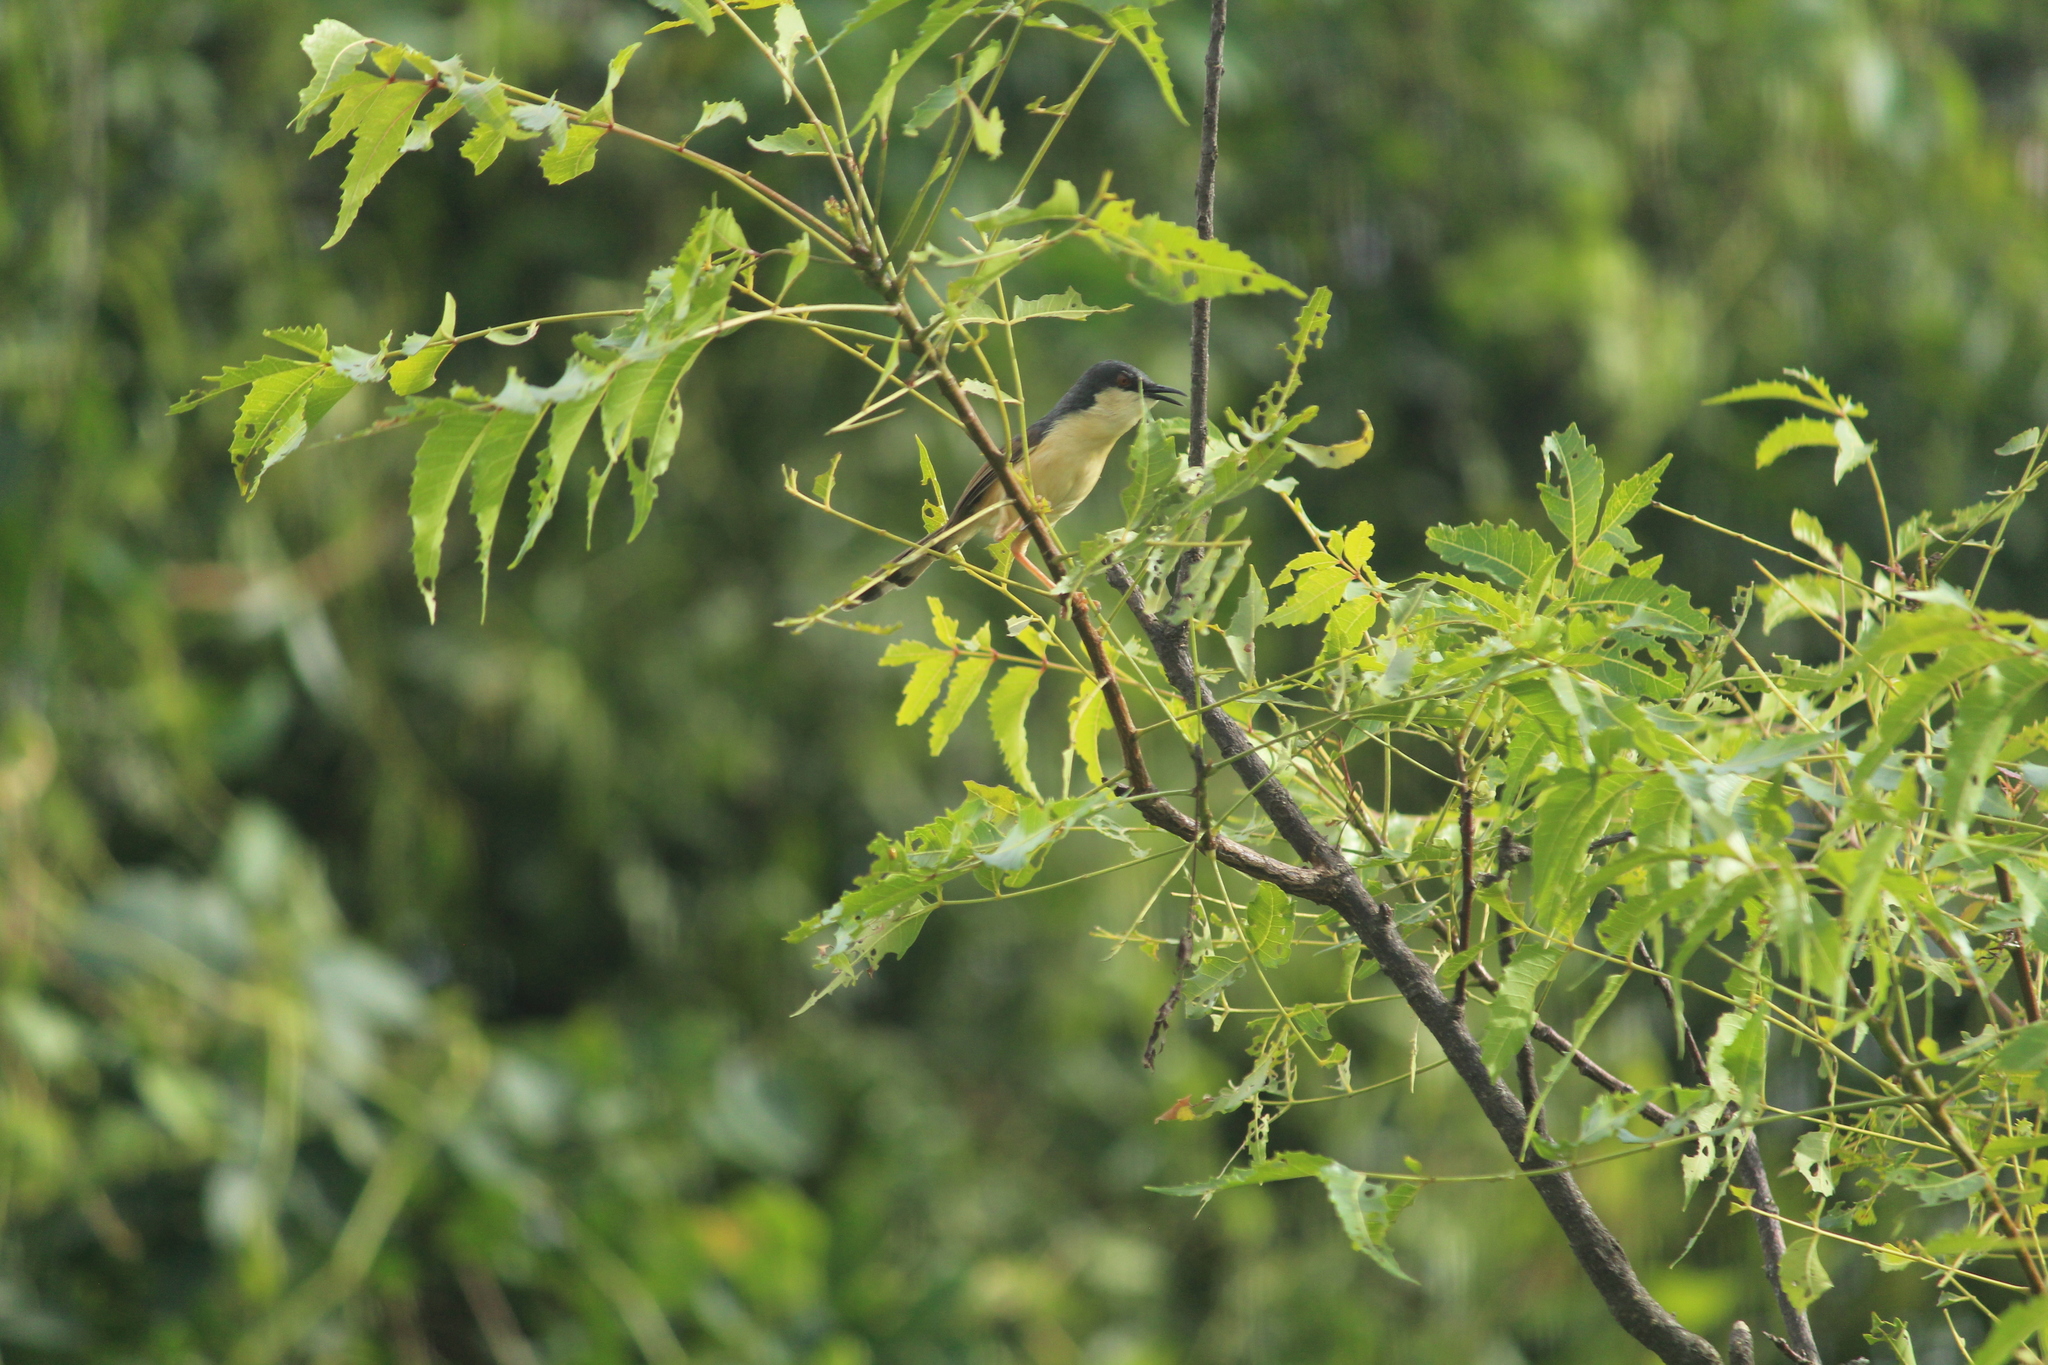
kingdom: Animalia
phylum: Chordata
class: Aves
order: Passeriformes
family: Cisticolidae
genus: Prinia
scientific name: Prinia socialis
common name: Ashy prinia
